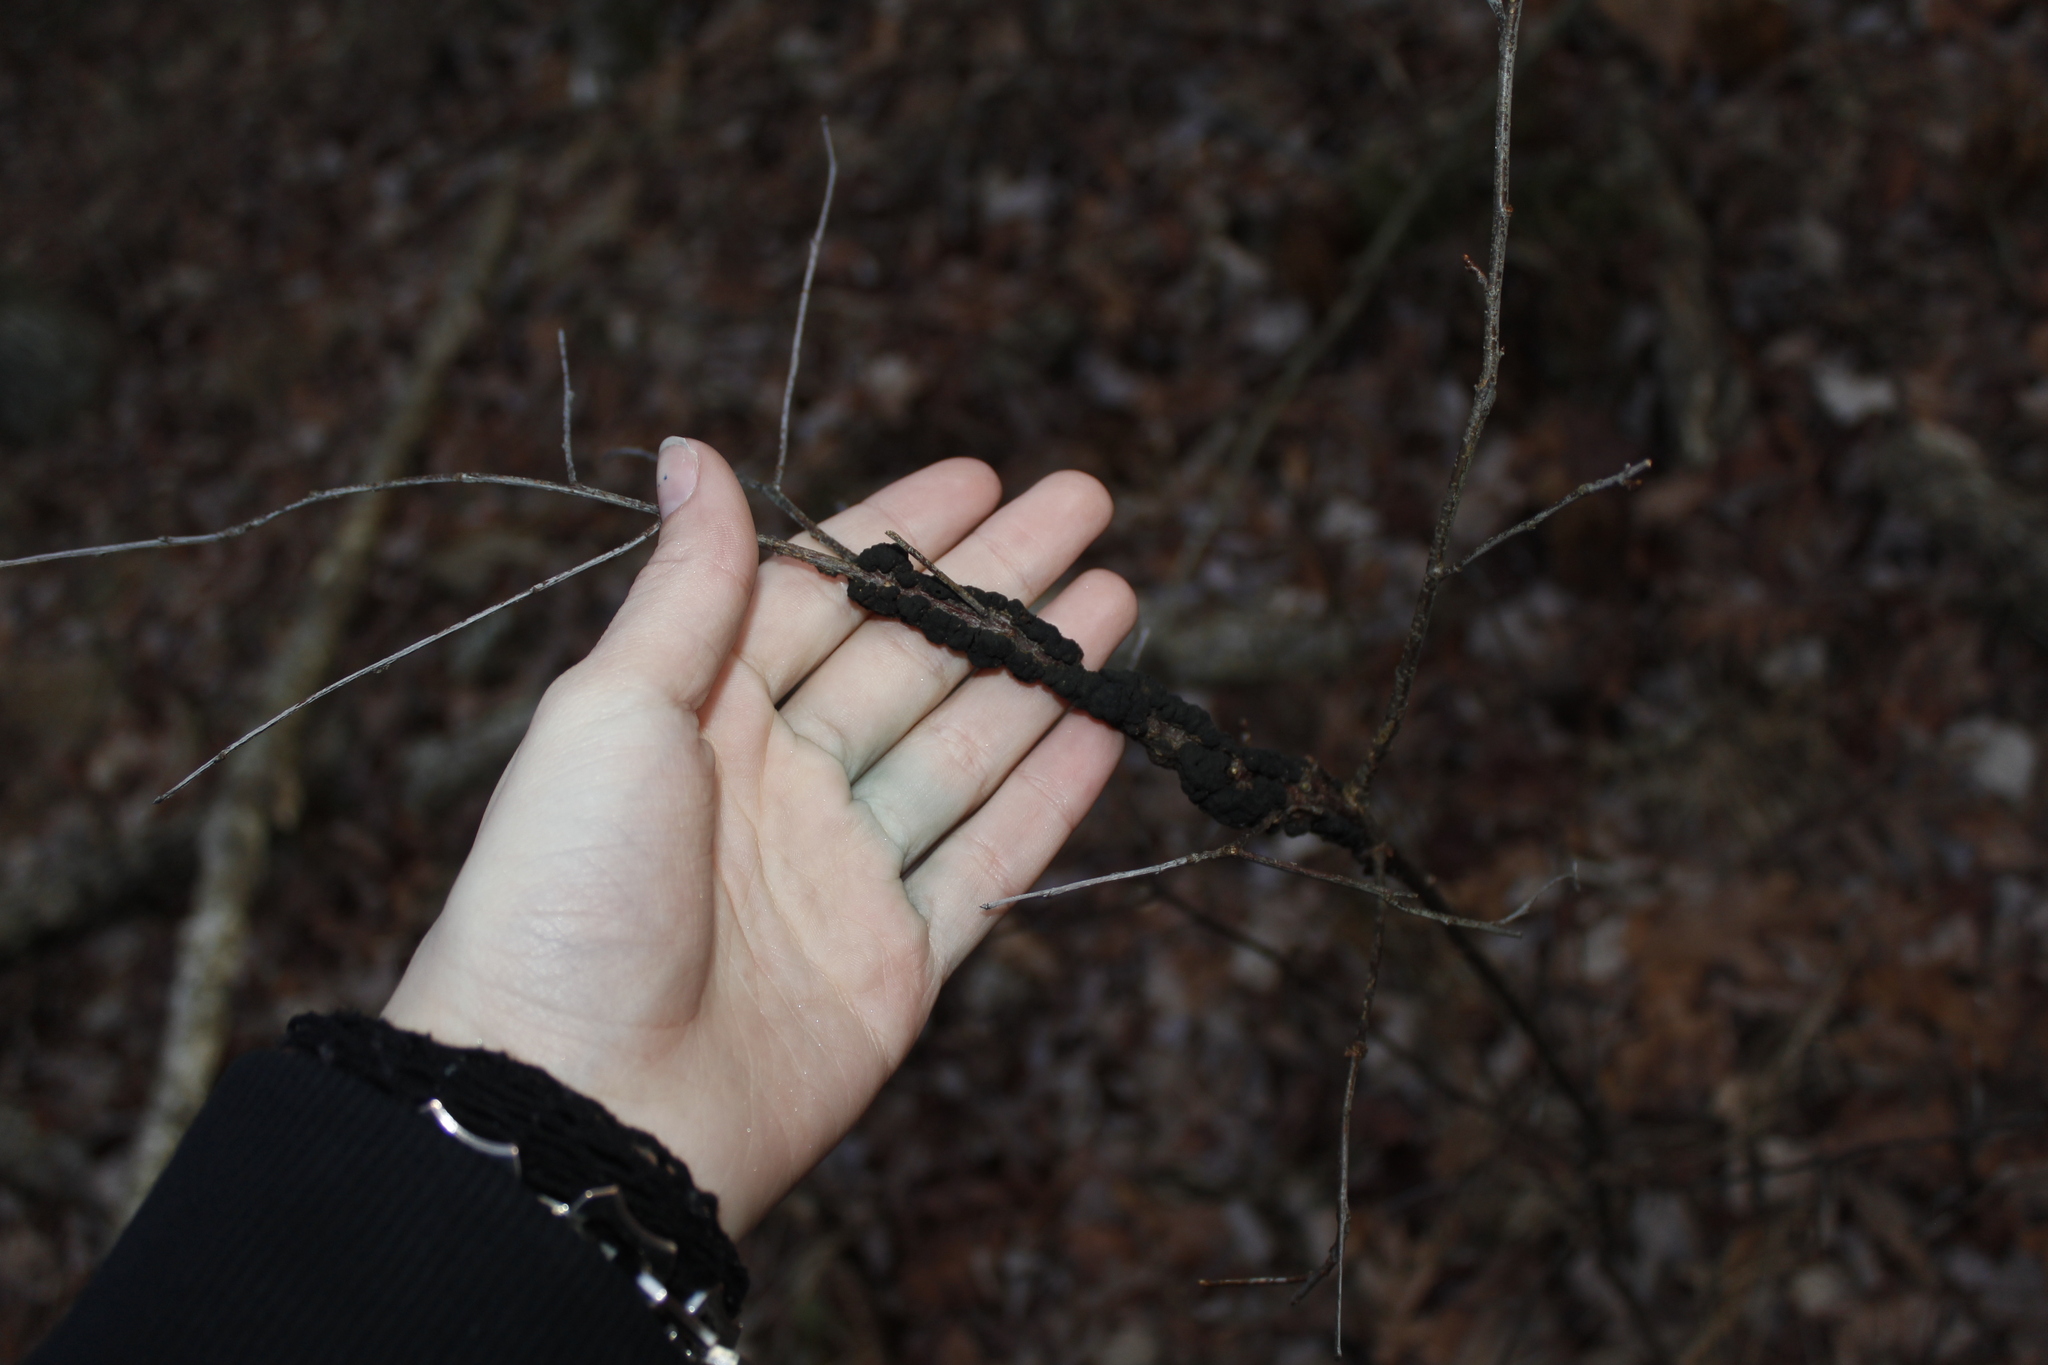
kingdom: Fungi
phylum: Ascomycota
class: Dothideomycetes
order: Venturiales
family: Venturiaceae
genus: Apiosporina
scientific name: Apiosporina morbosa
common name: Black knot
